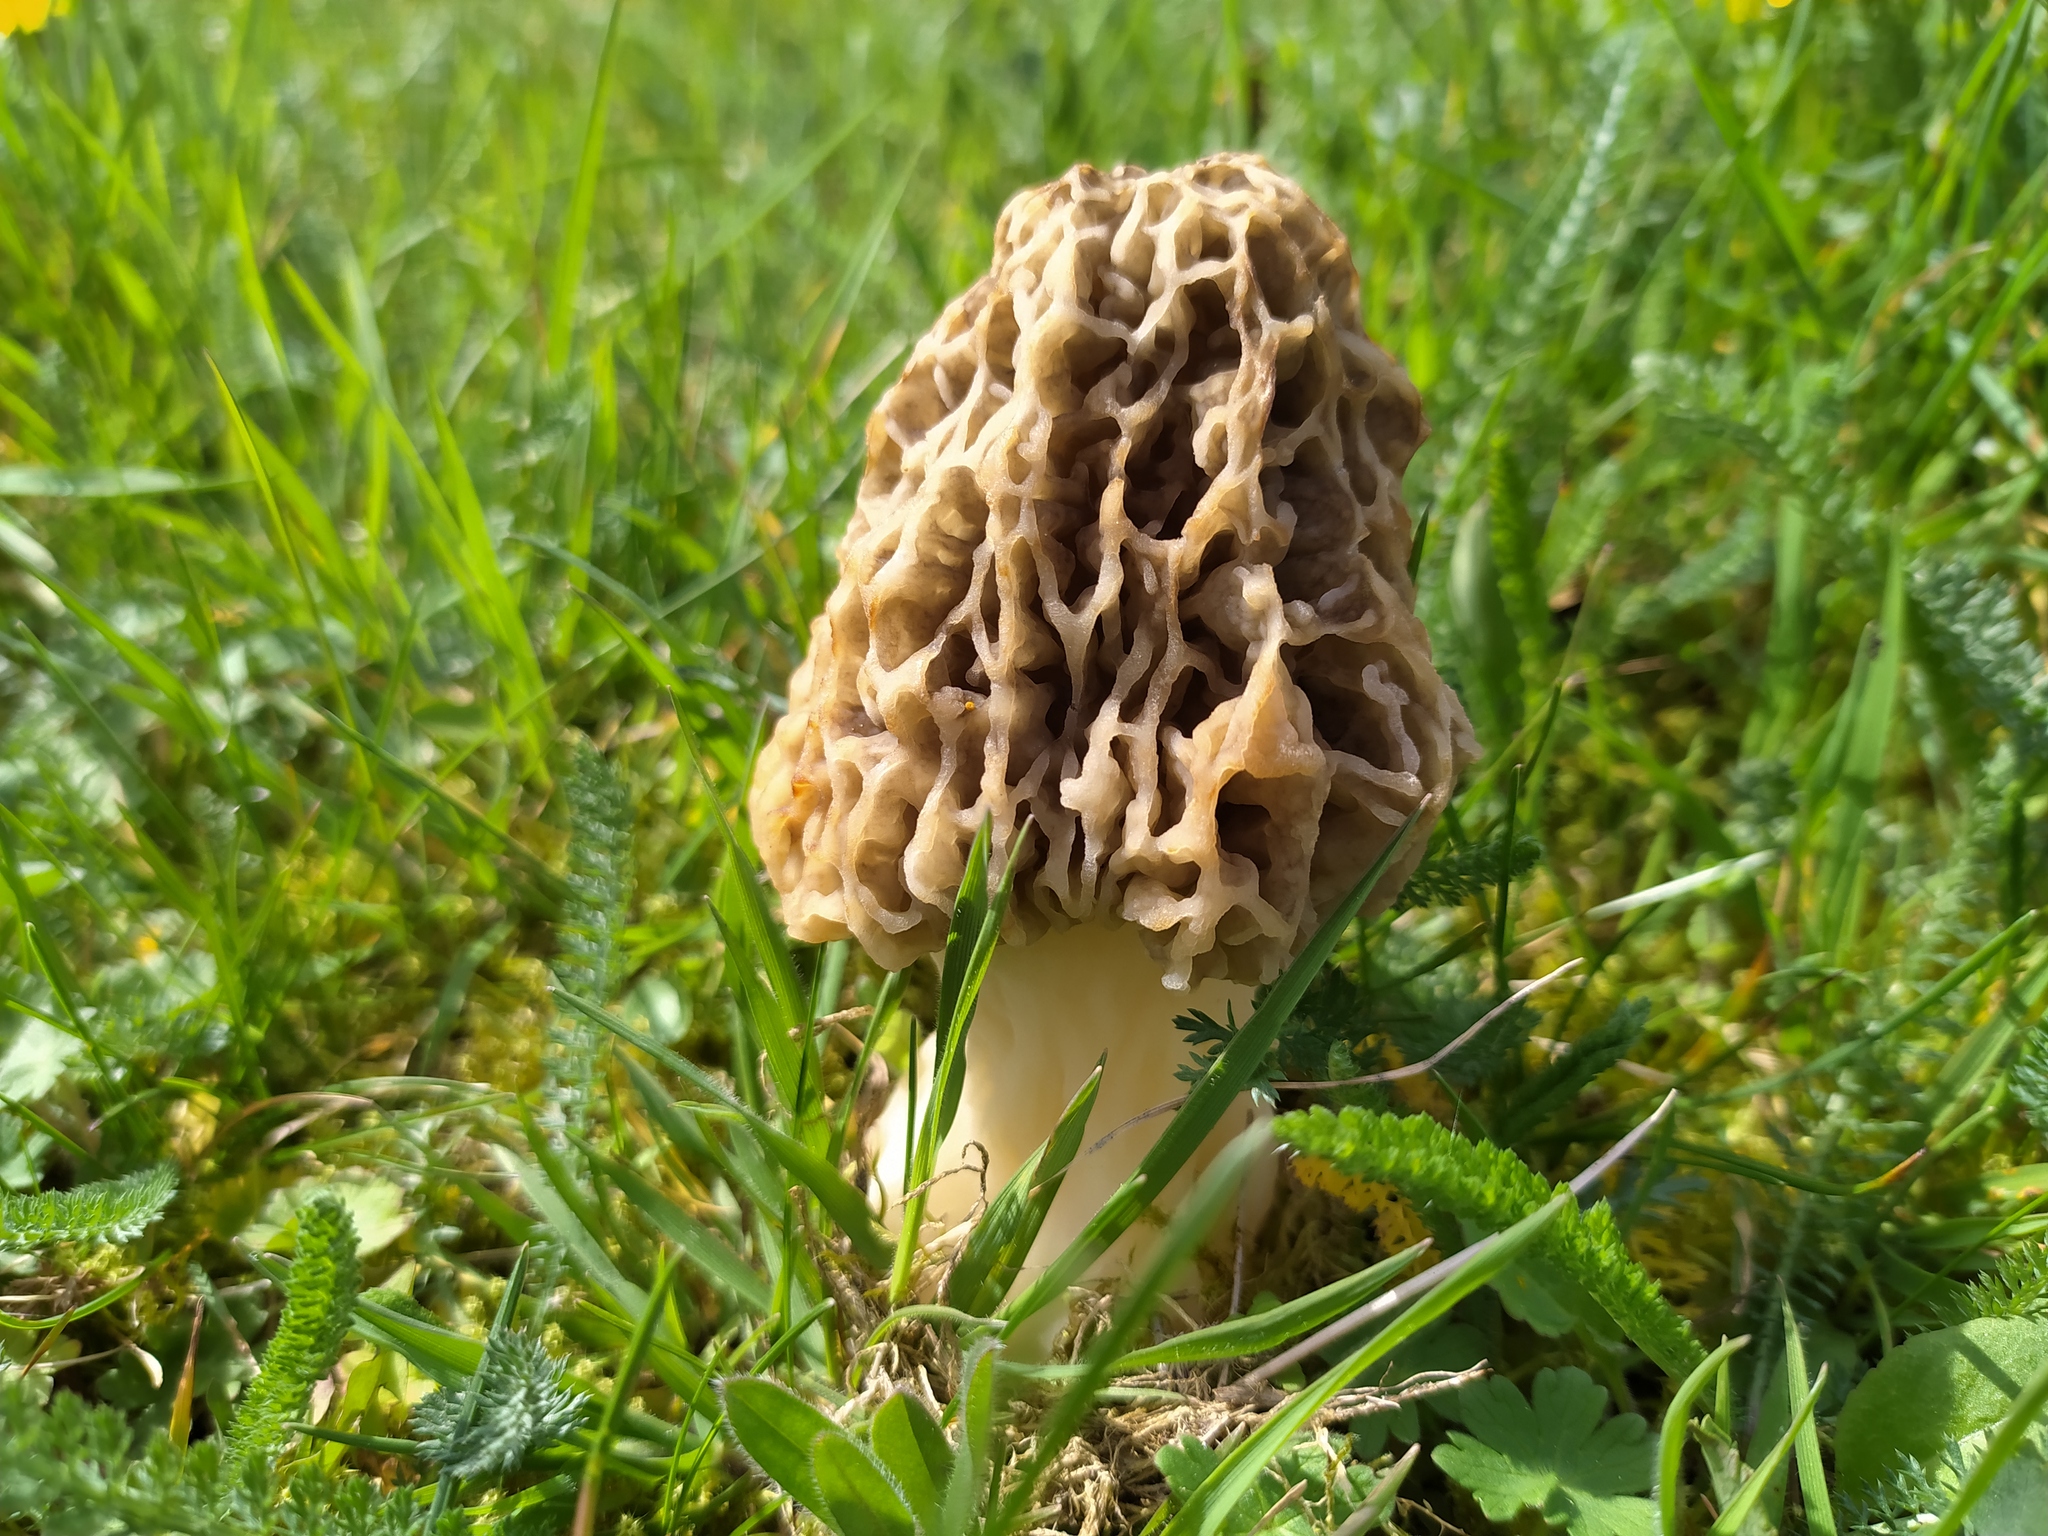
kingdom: Fungi
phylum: Ascomycota
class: Pezizomycetes
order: Pezizales
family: Morchellaceae
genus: Morchella
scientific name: Morchella vulgaris
